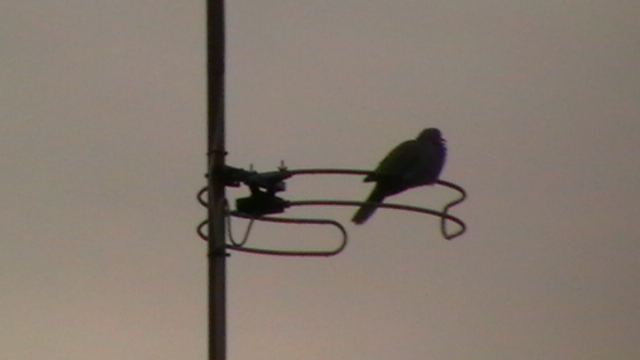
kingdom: Animalia
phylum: Chordata
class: Aves
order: Columbiformes
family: Columbidae
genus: Columba
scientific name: Columba palumbus
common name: Common wood pigeon
